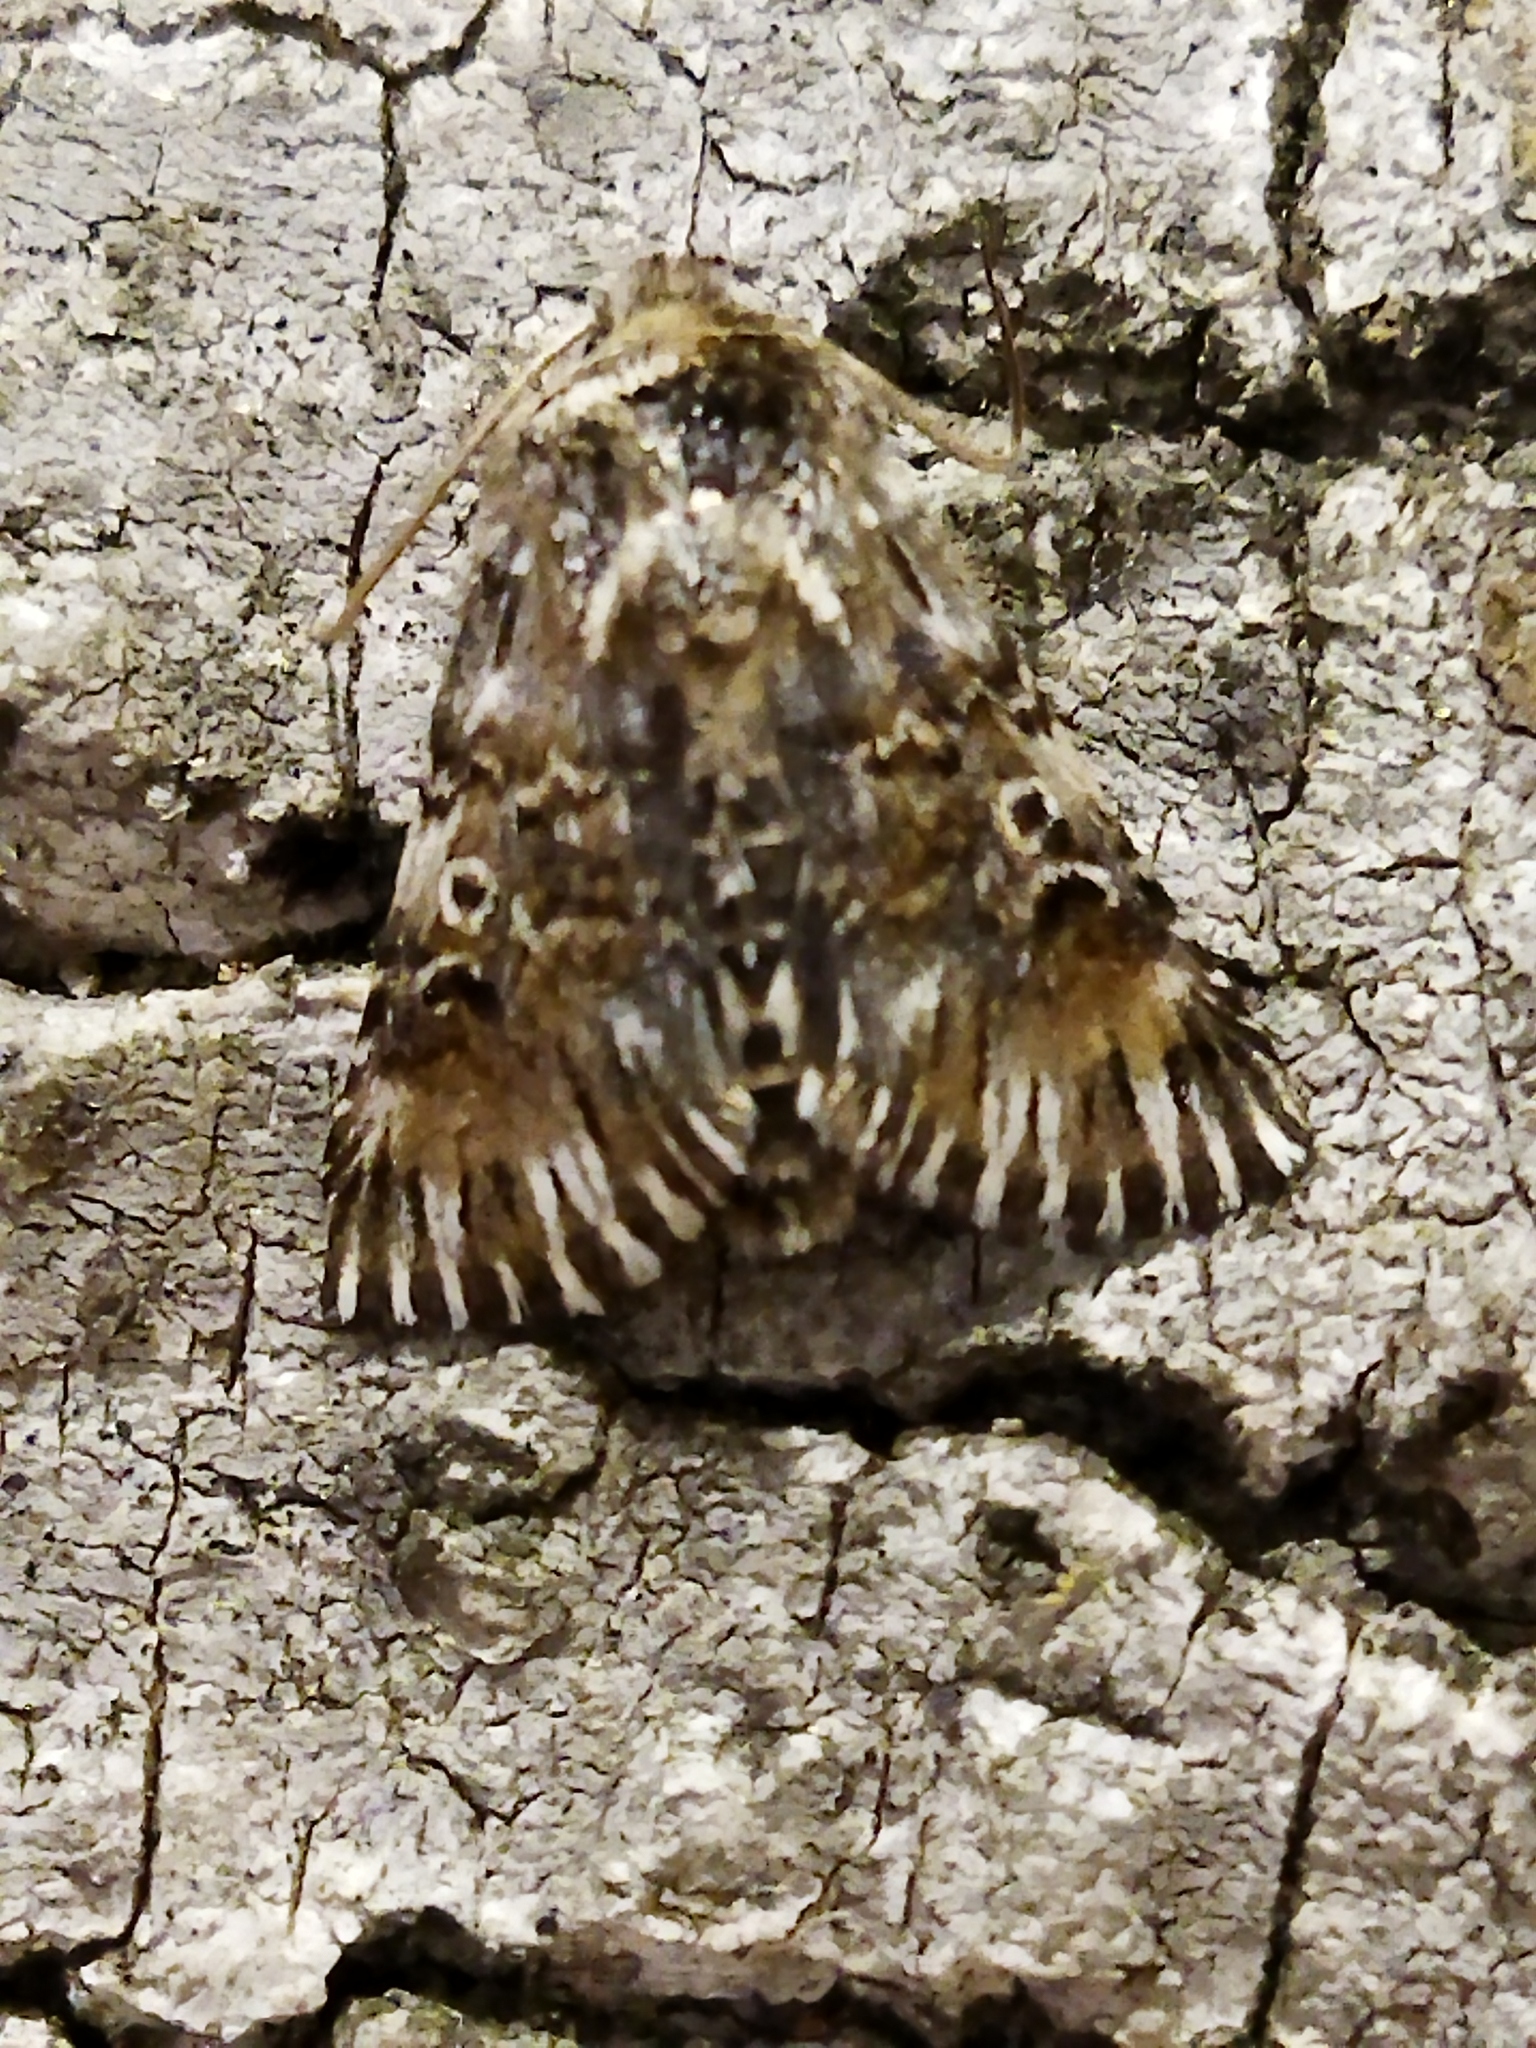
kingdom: Animalia
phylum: Arthropoda
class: Insecta
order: Lepidoptera
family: Noctuidae
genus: Omphalophana
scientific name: Omphalophana antirrhinii
